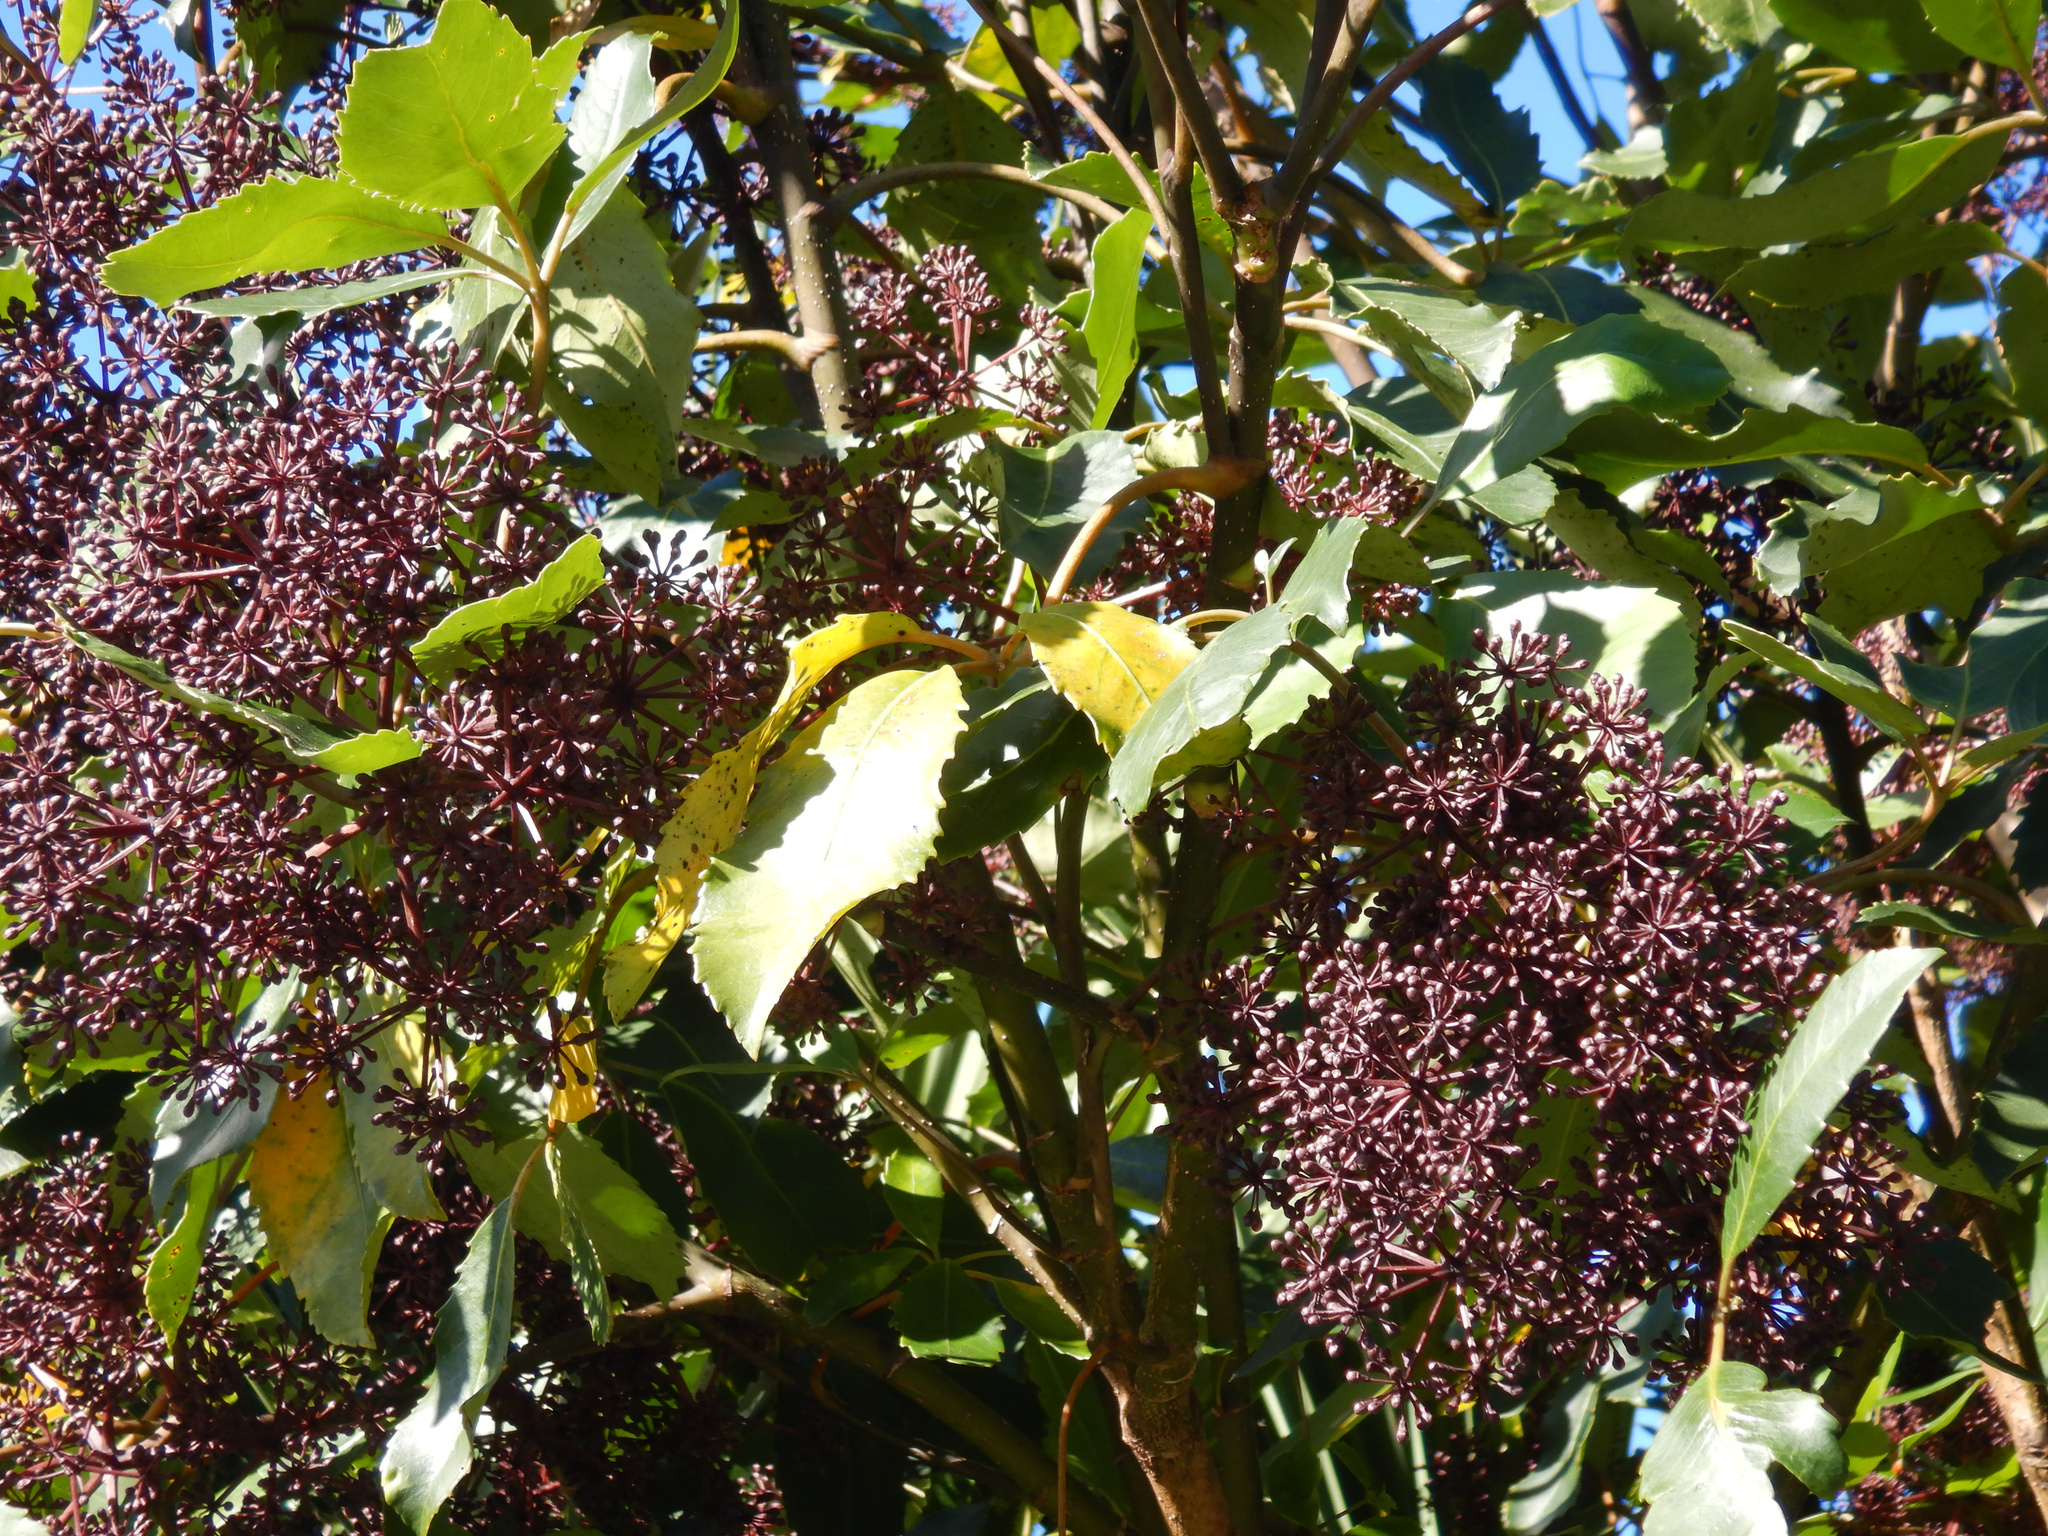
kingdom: Plantae
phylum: Tracheophyta
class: Magnoliopsida
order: Apiales
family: Araliaceae
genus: Neopanax
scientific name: Neopanax arboreus
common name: Five-fingers
